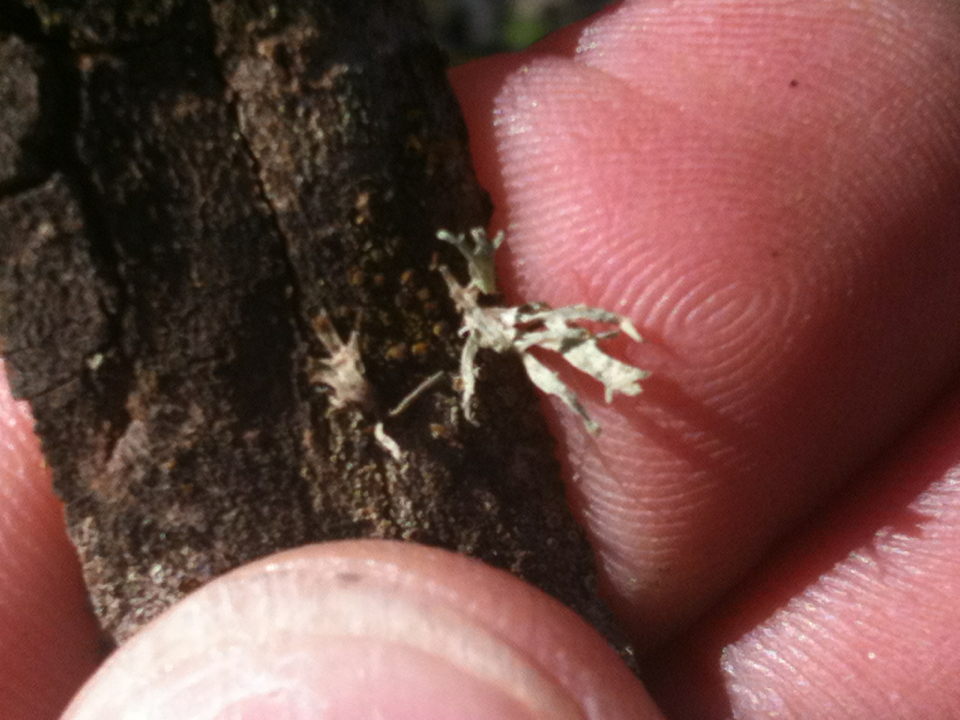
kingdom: Fungi
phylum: Ascomycota
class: Lecanoromycetes
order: Lecanorales
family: Ramalinaceae
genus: Ramalina
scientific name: Ramalina
